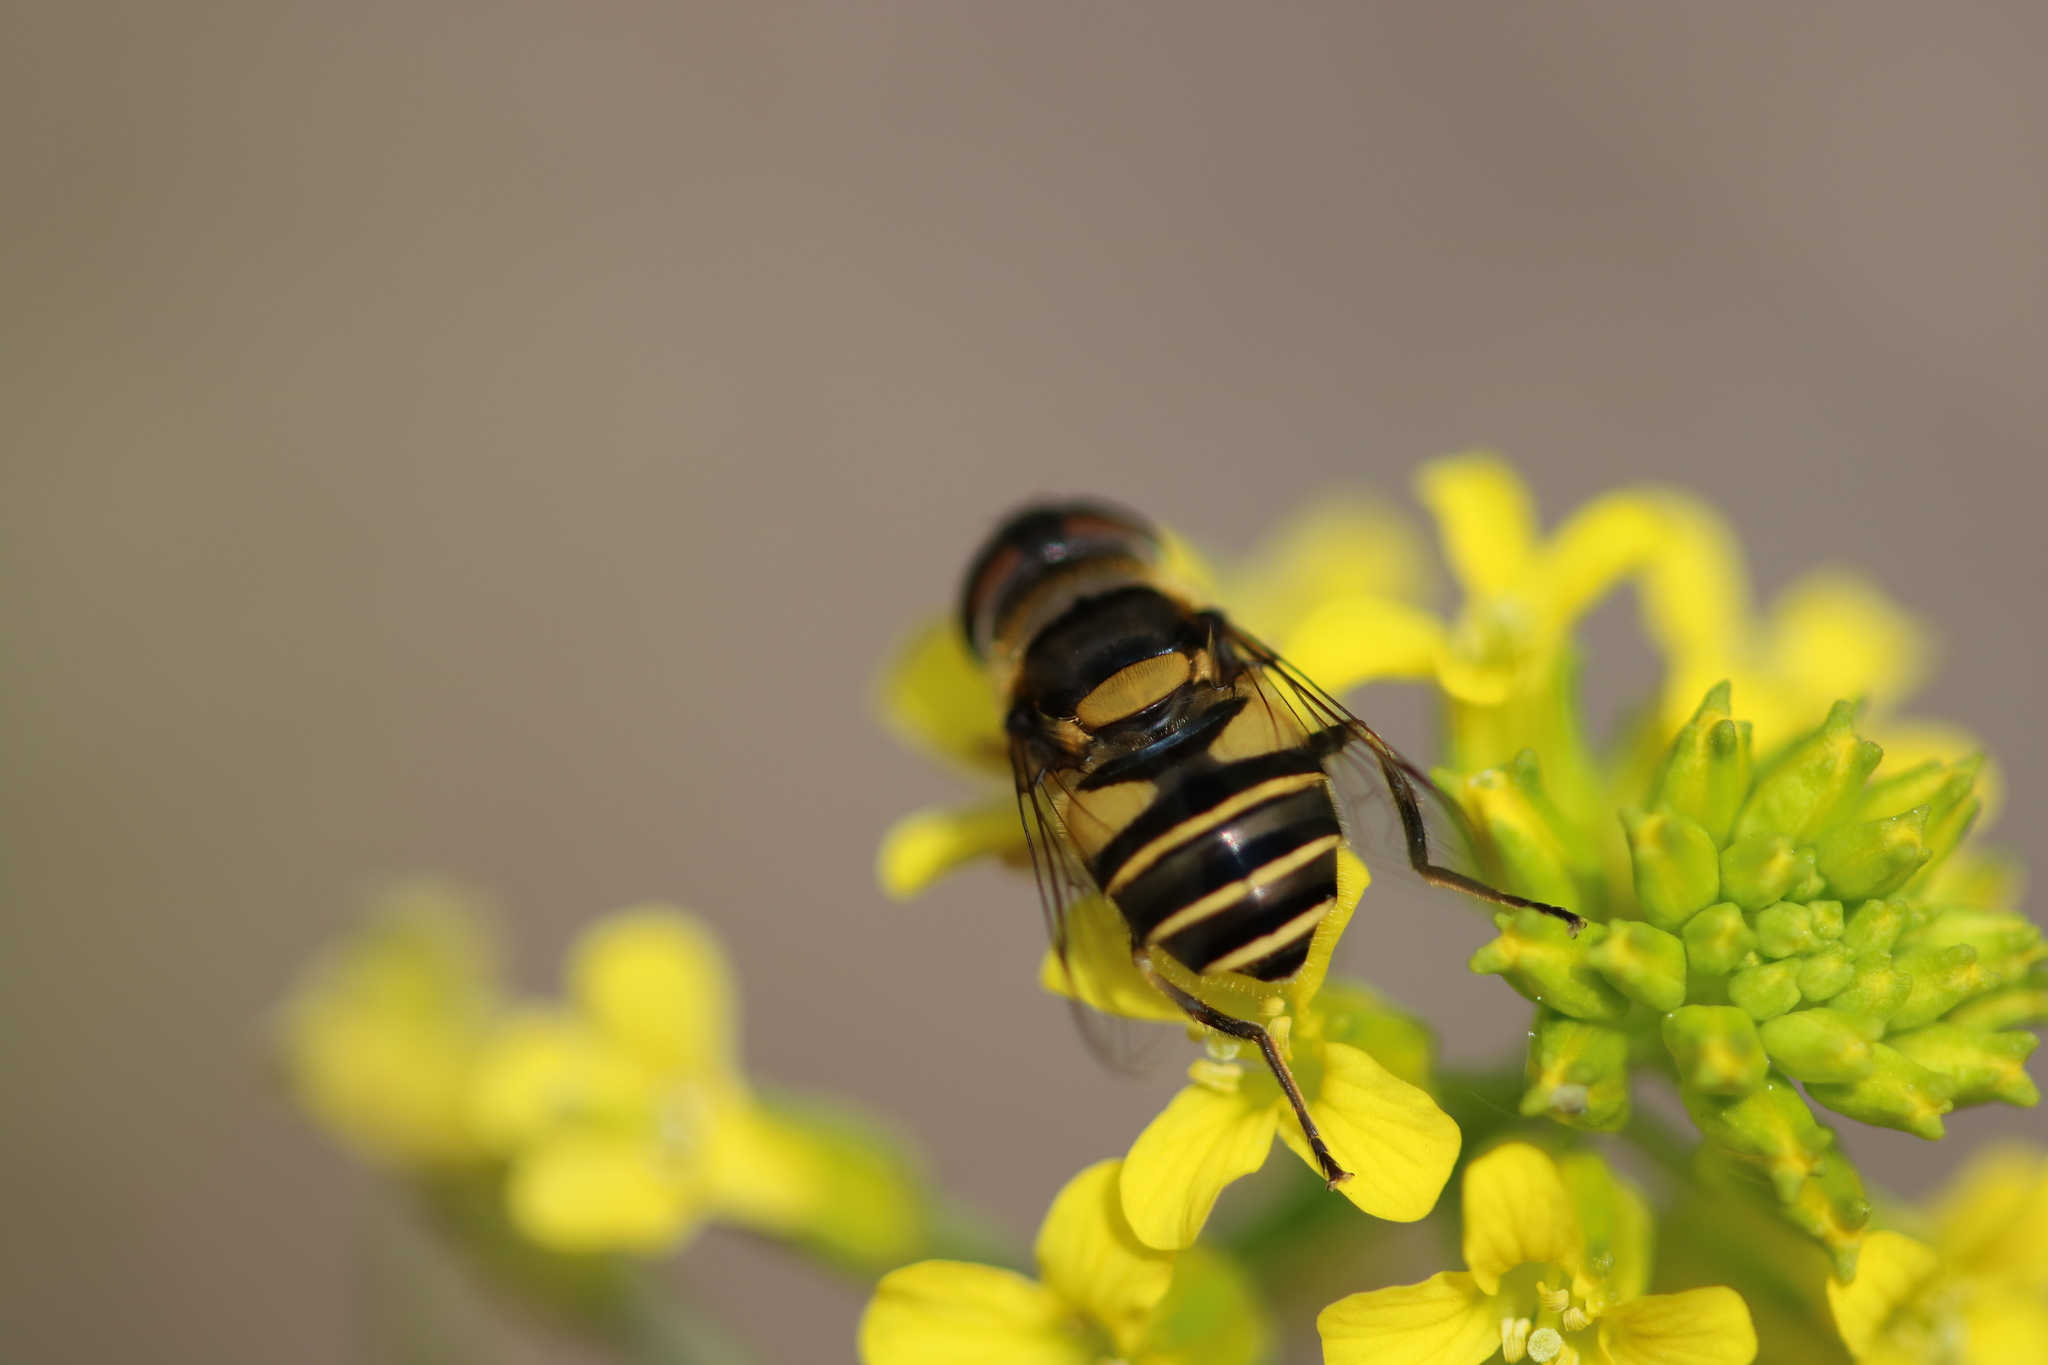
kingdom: Animalia
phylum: Arthropoda
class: Insecta
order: Diptera
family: Syrphidae
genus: Eristalis
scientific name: Eristalis transversa
